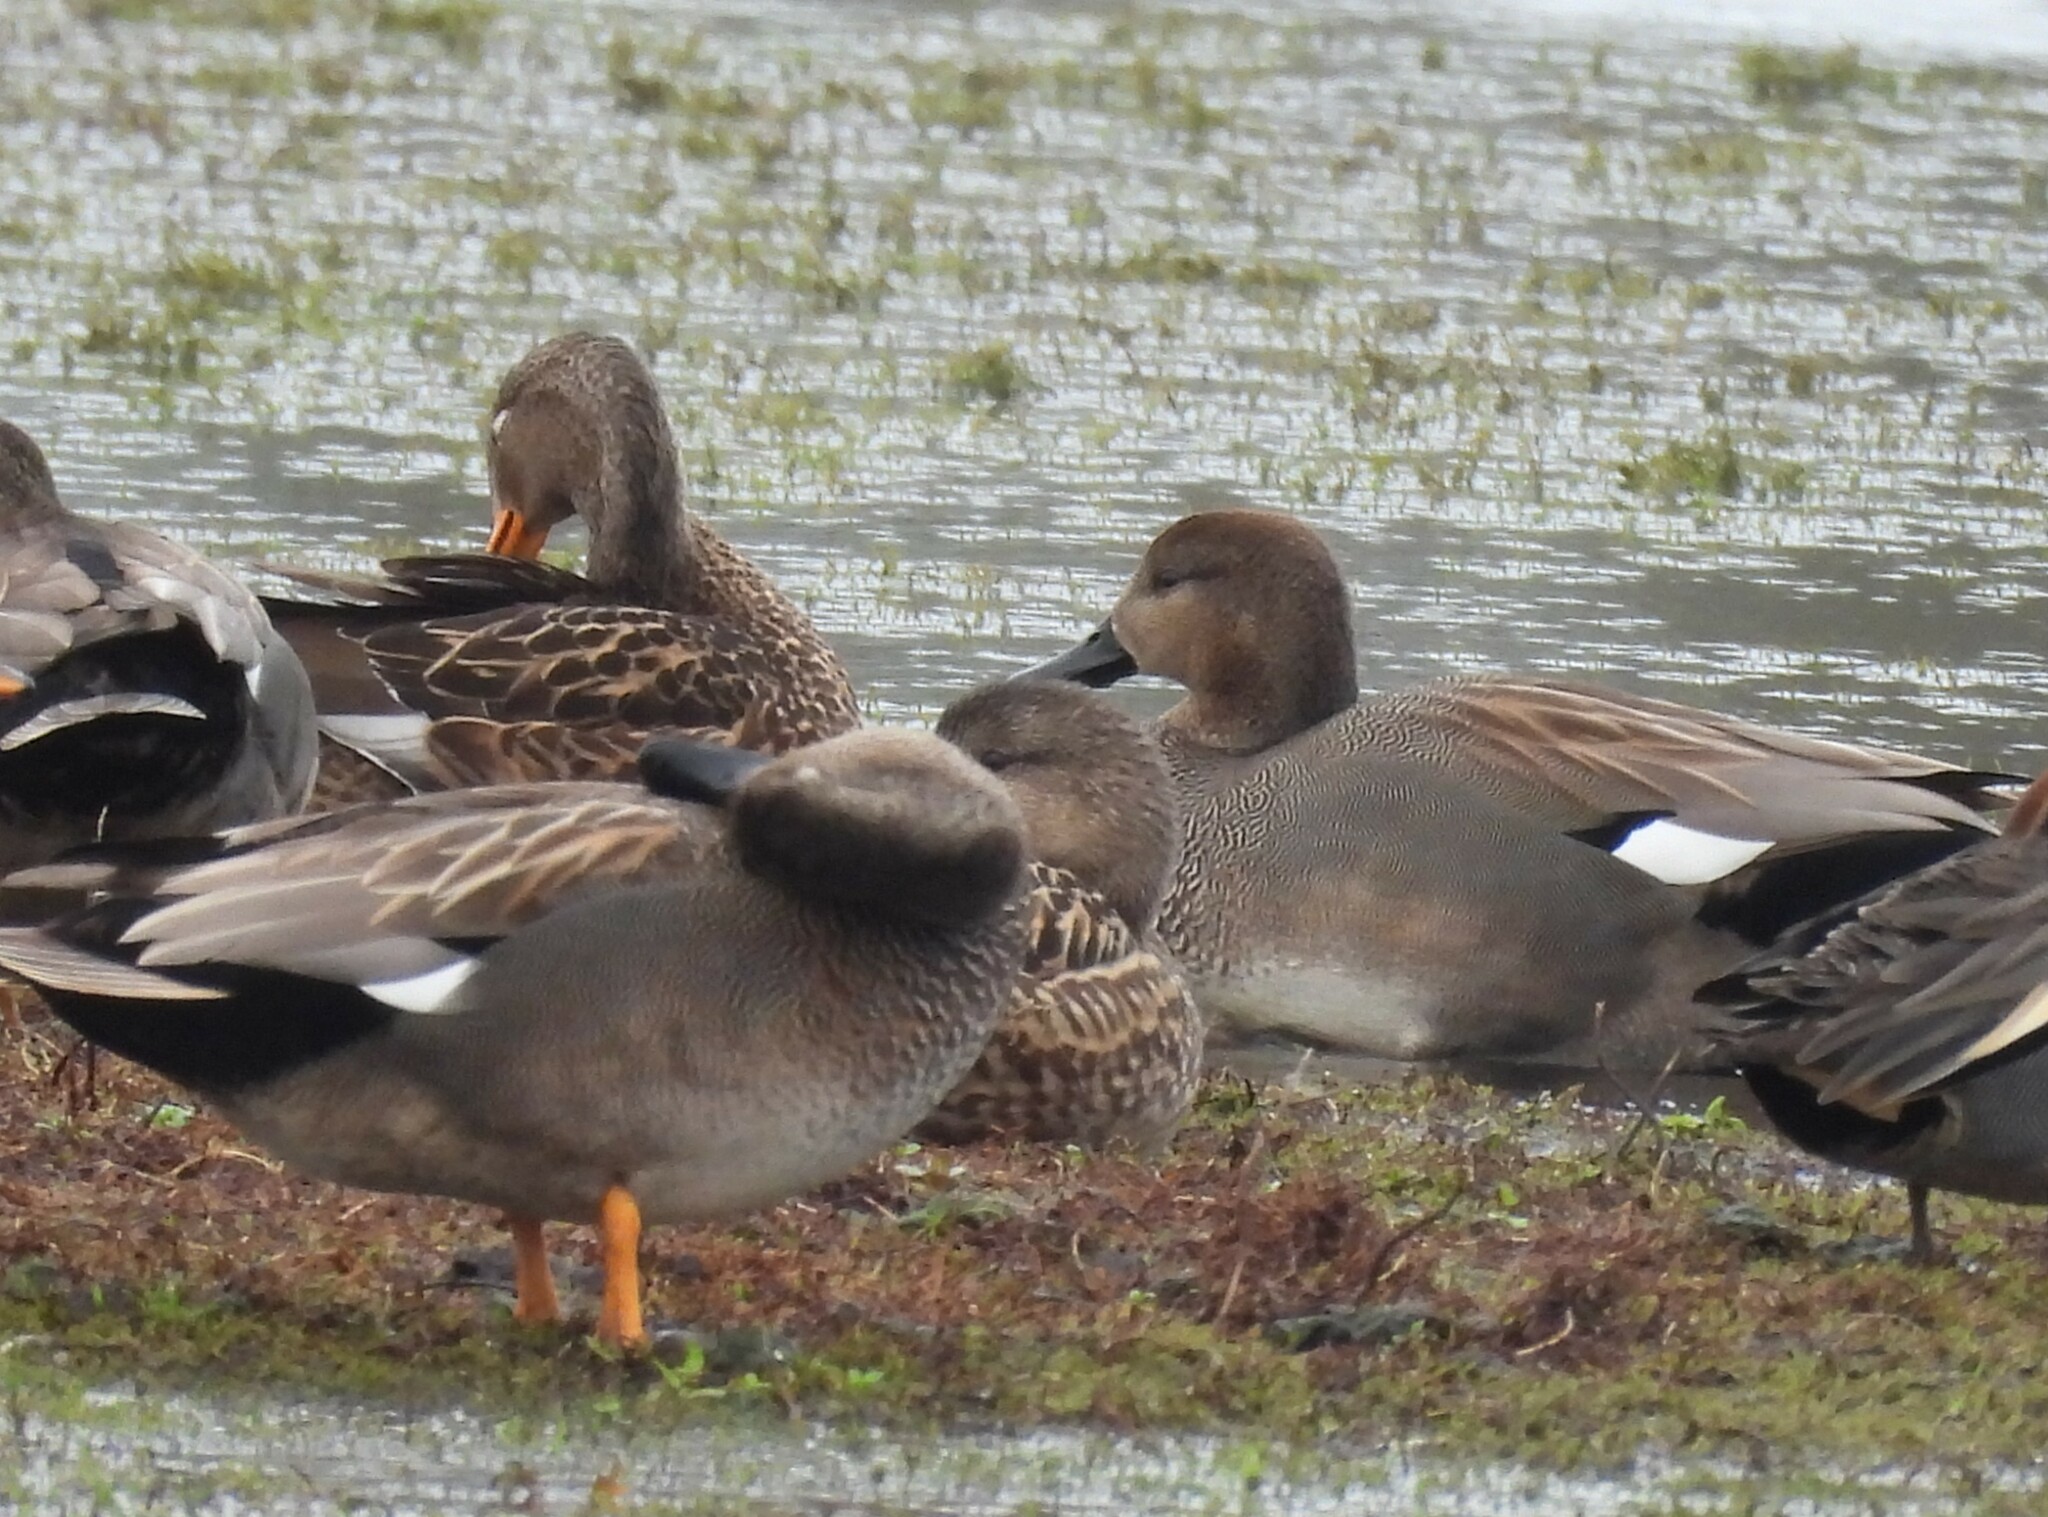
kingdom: Animalia
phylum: Chordata
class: Aves
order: Anseriformes
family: Anatidae
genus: Mareca
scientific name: Mareca strepera
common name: Gadwall
